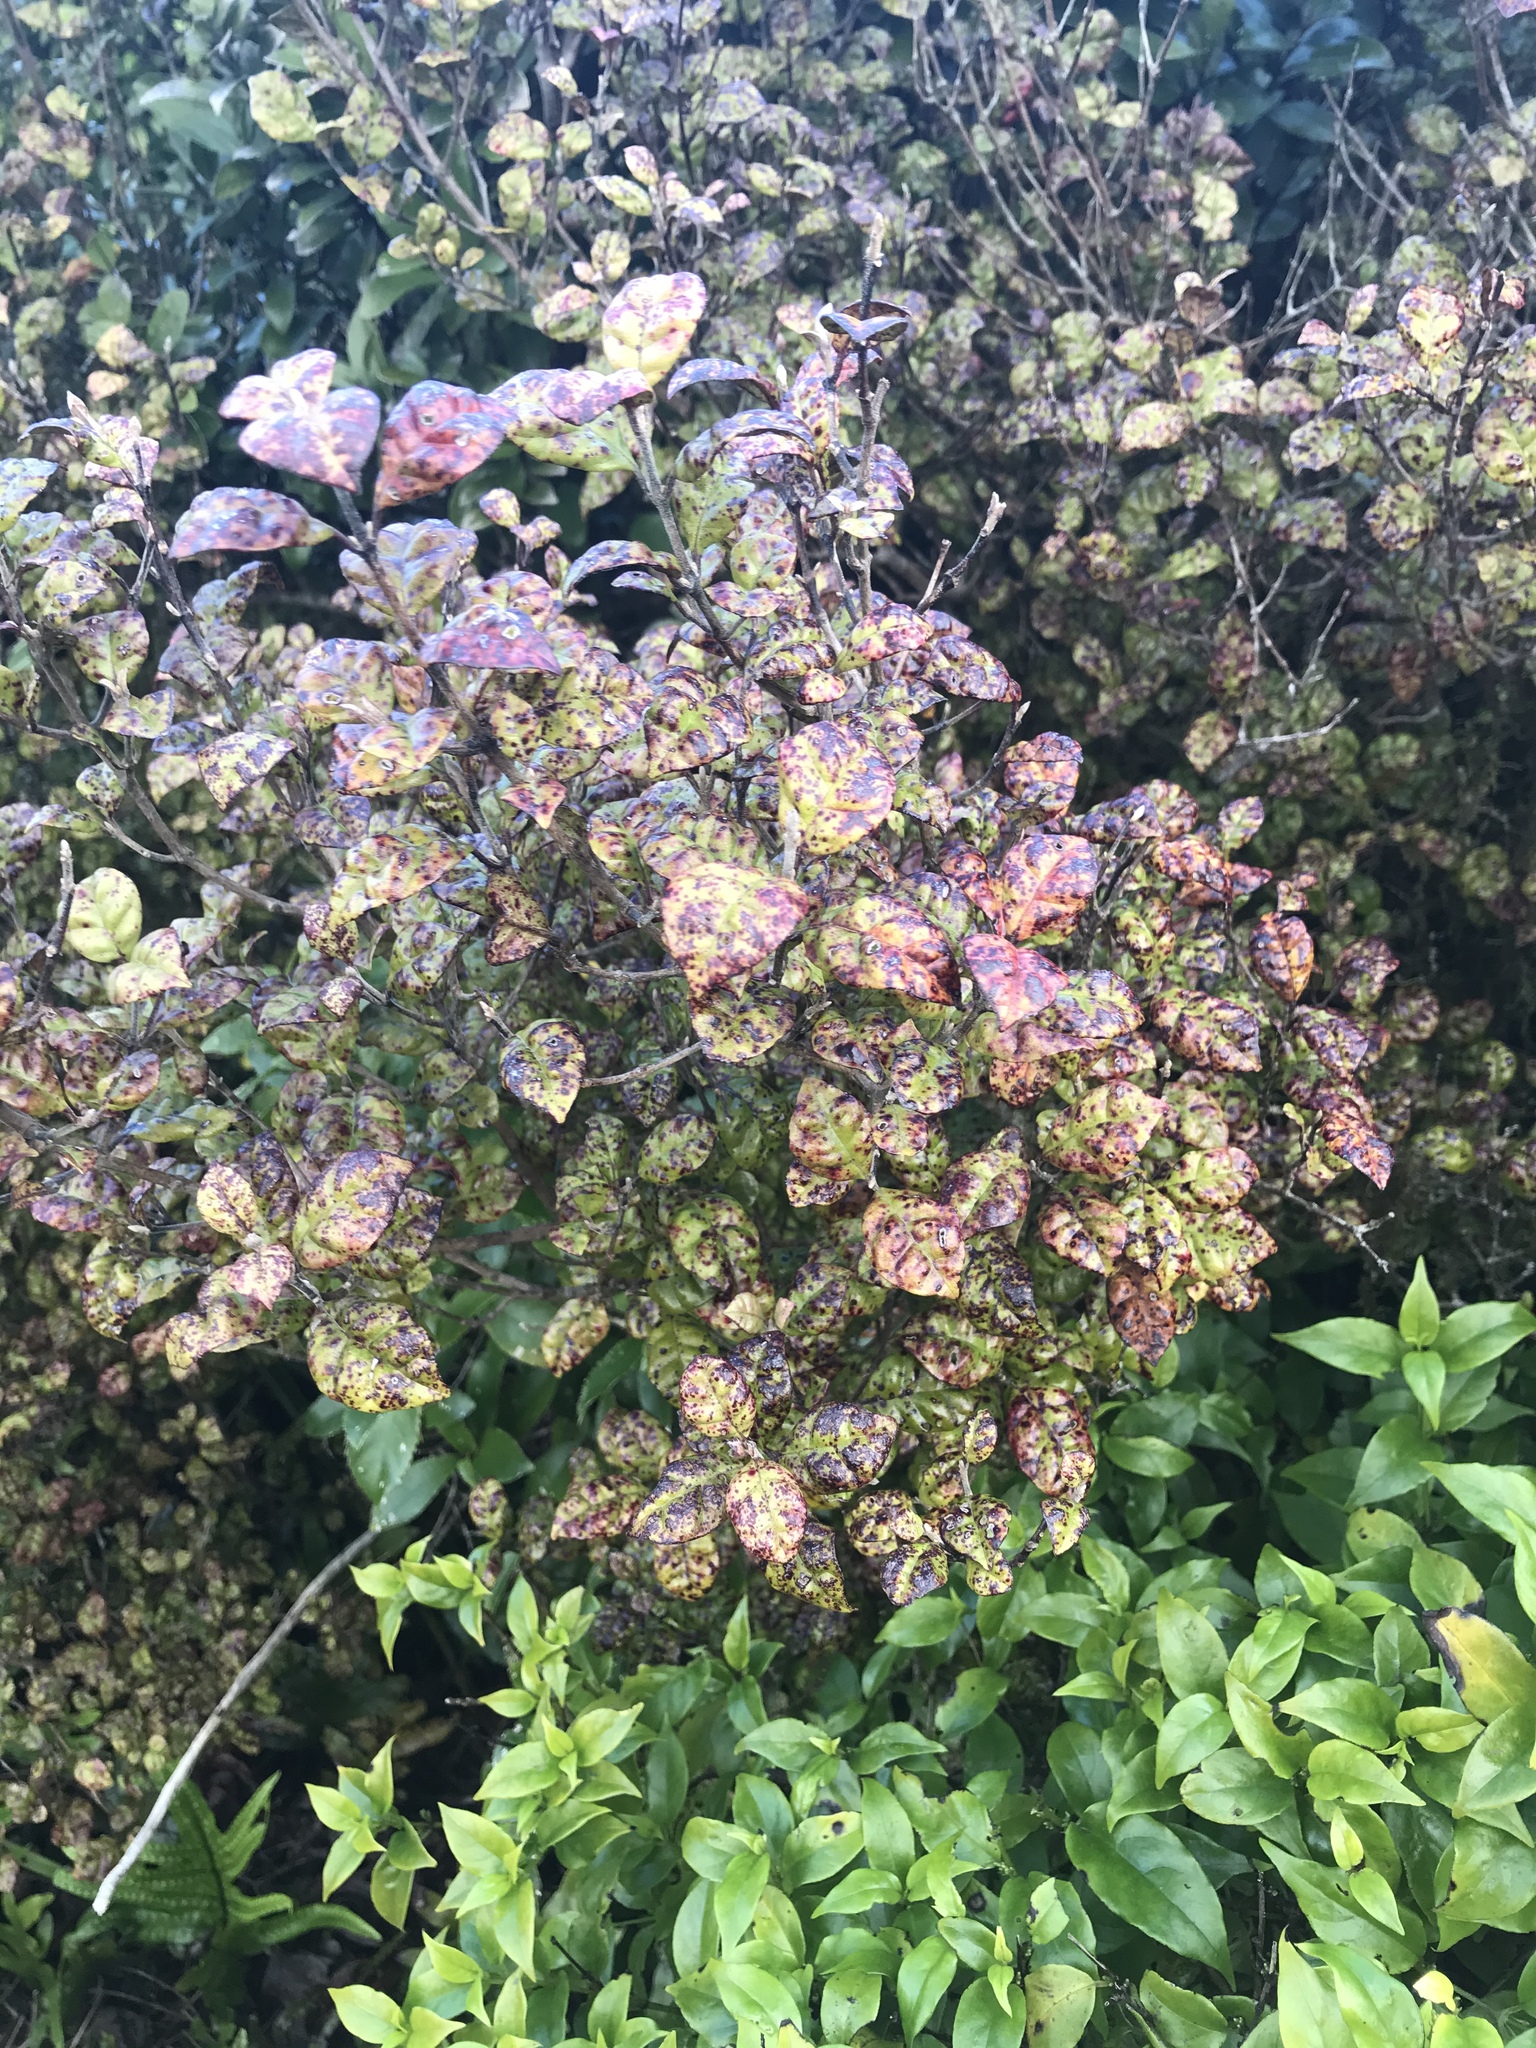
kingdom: Plantae
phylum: Tracheophyta
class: Magnoliopsida
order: Myrtales
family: Myrtaceae
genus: Lophomyrtus
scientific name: Lophomyrtus bullata
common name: Rama rama
